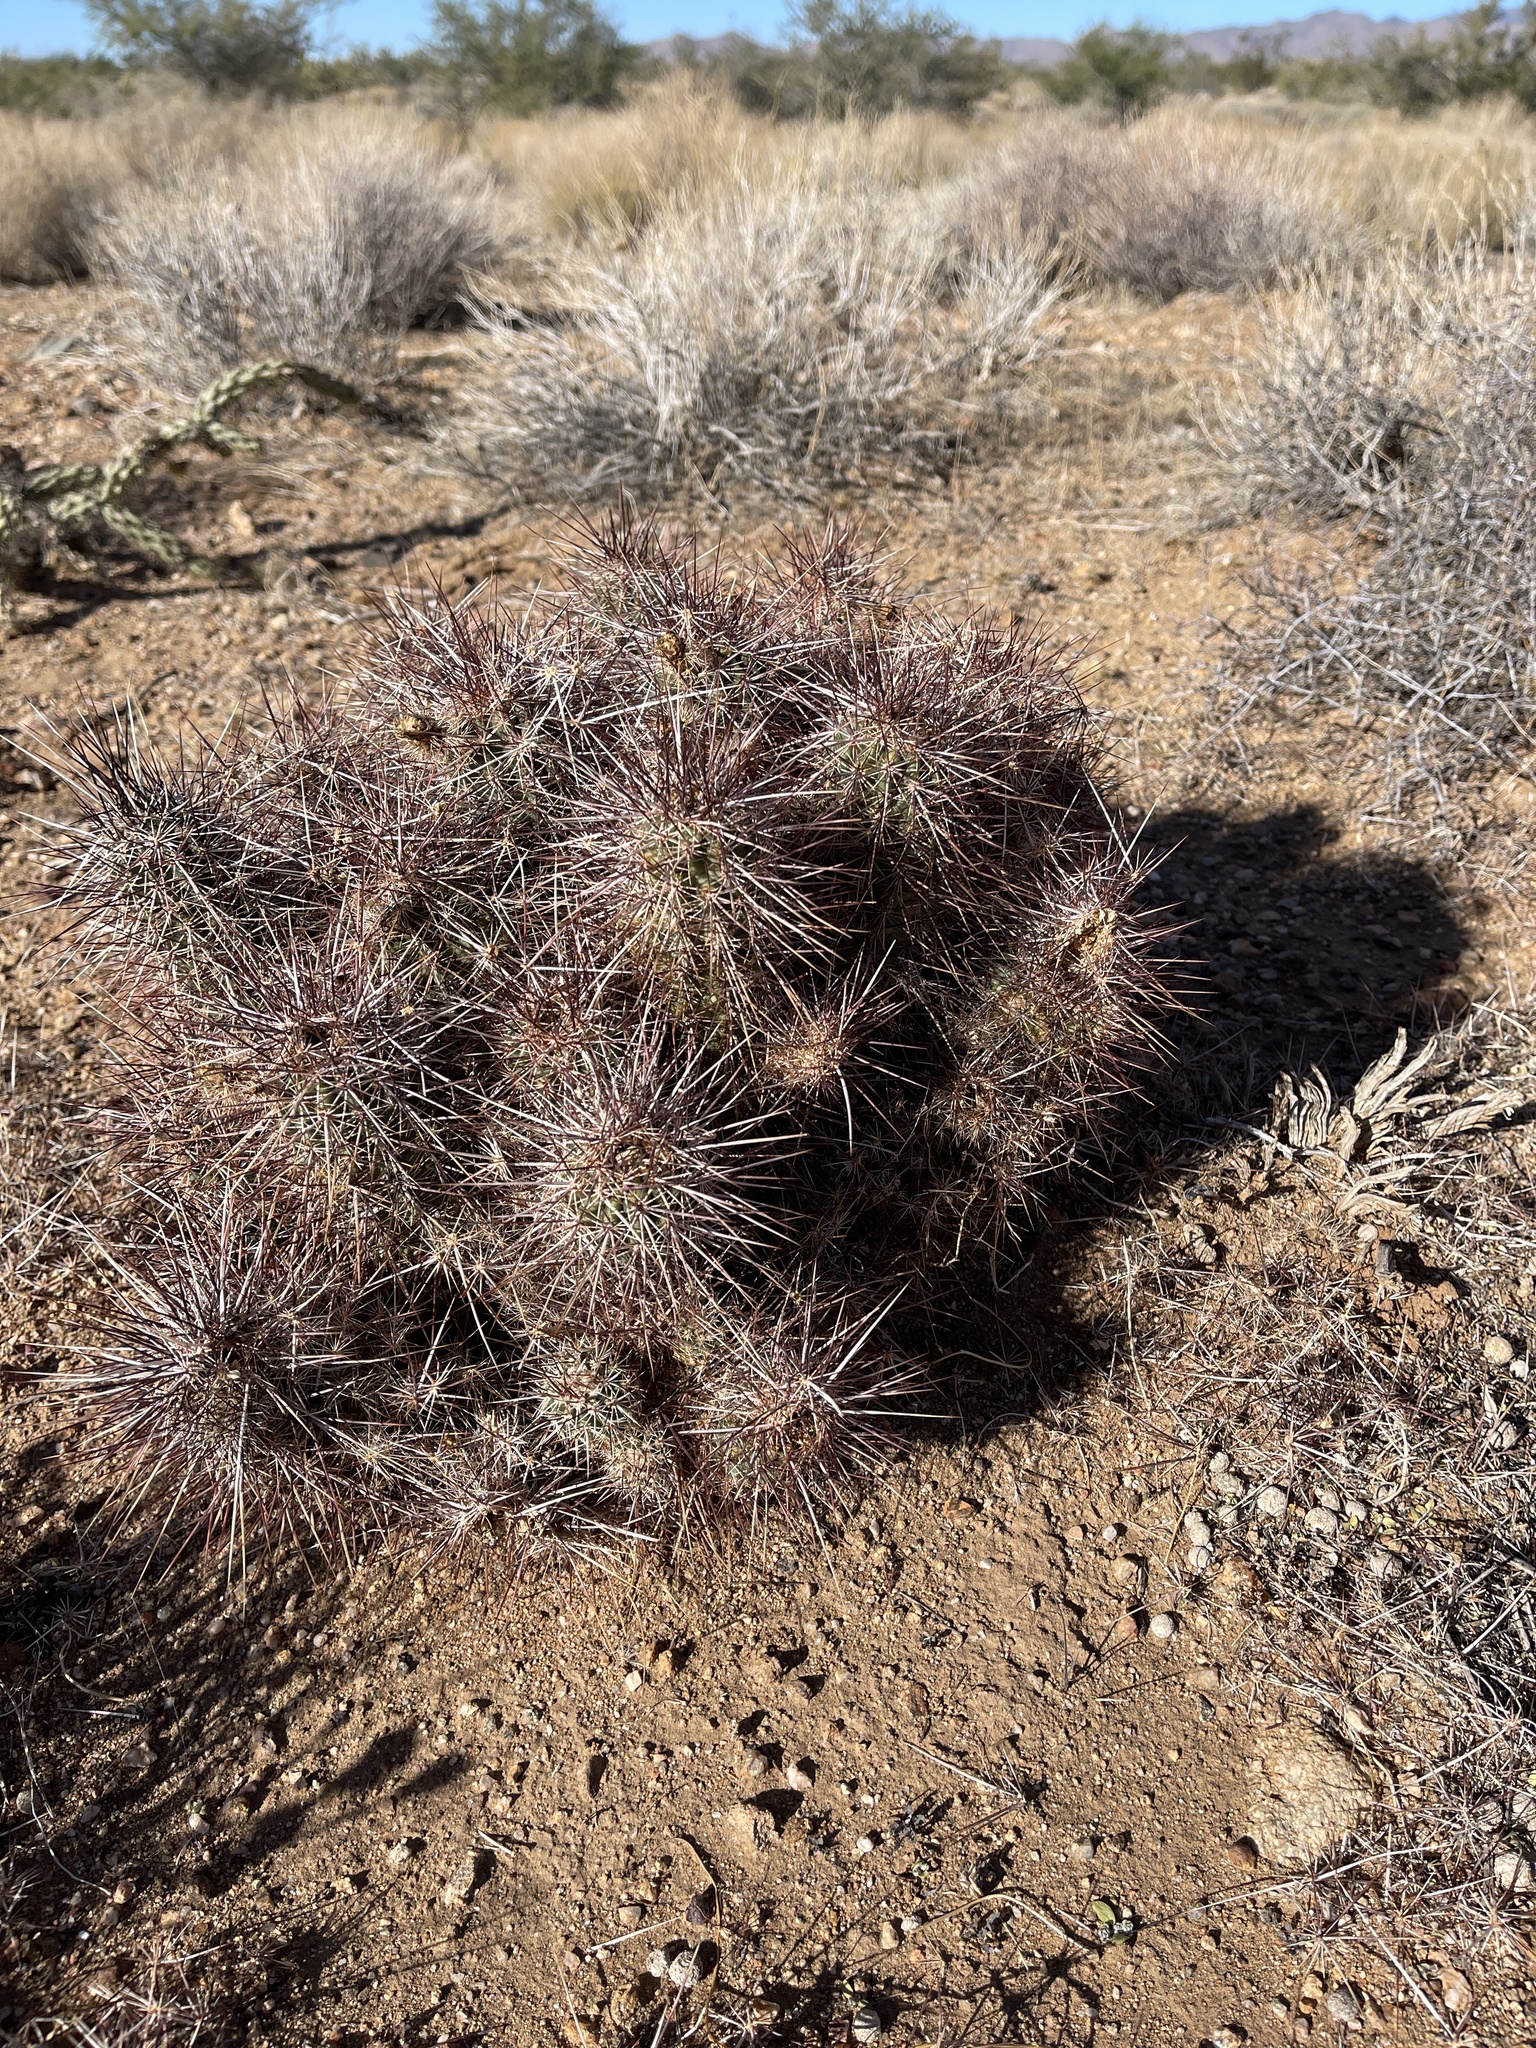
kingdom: Plantae
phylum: Tracheophyta
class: Magnoliopsida
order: Caryophyllales
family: Cactaceae
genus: Echinocereus
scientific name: Echinocereus engelmannii
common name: Engelmann's hedgehog cactus
